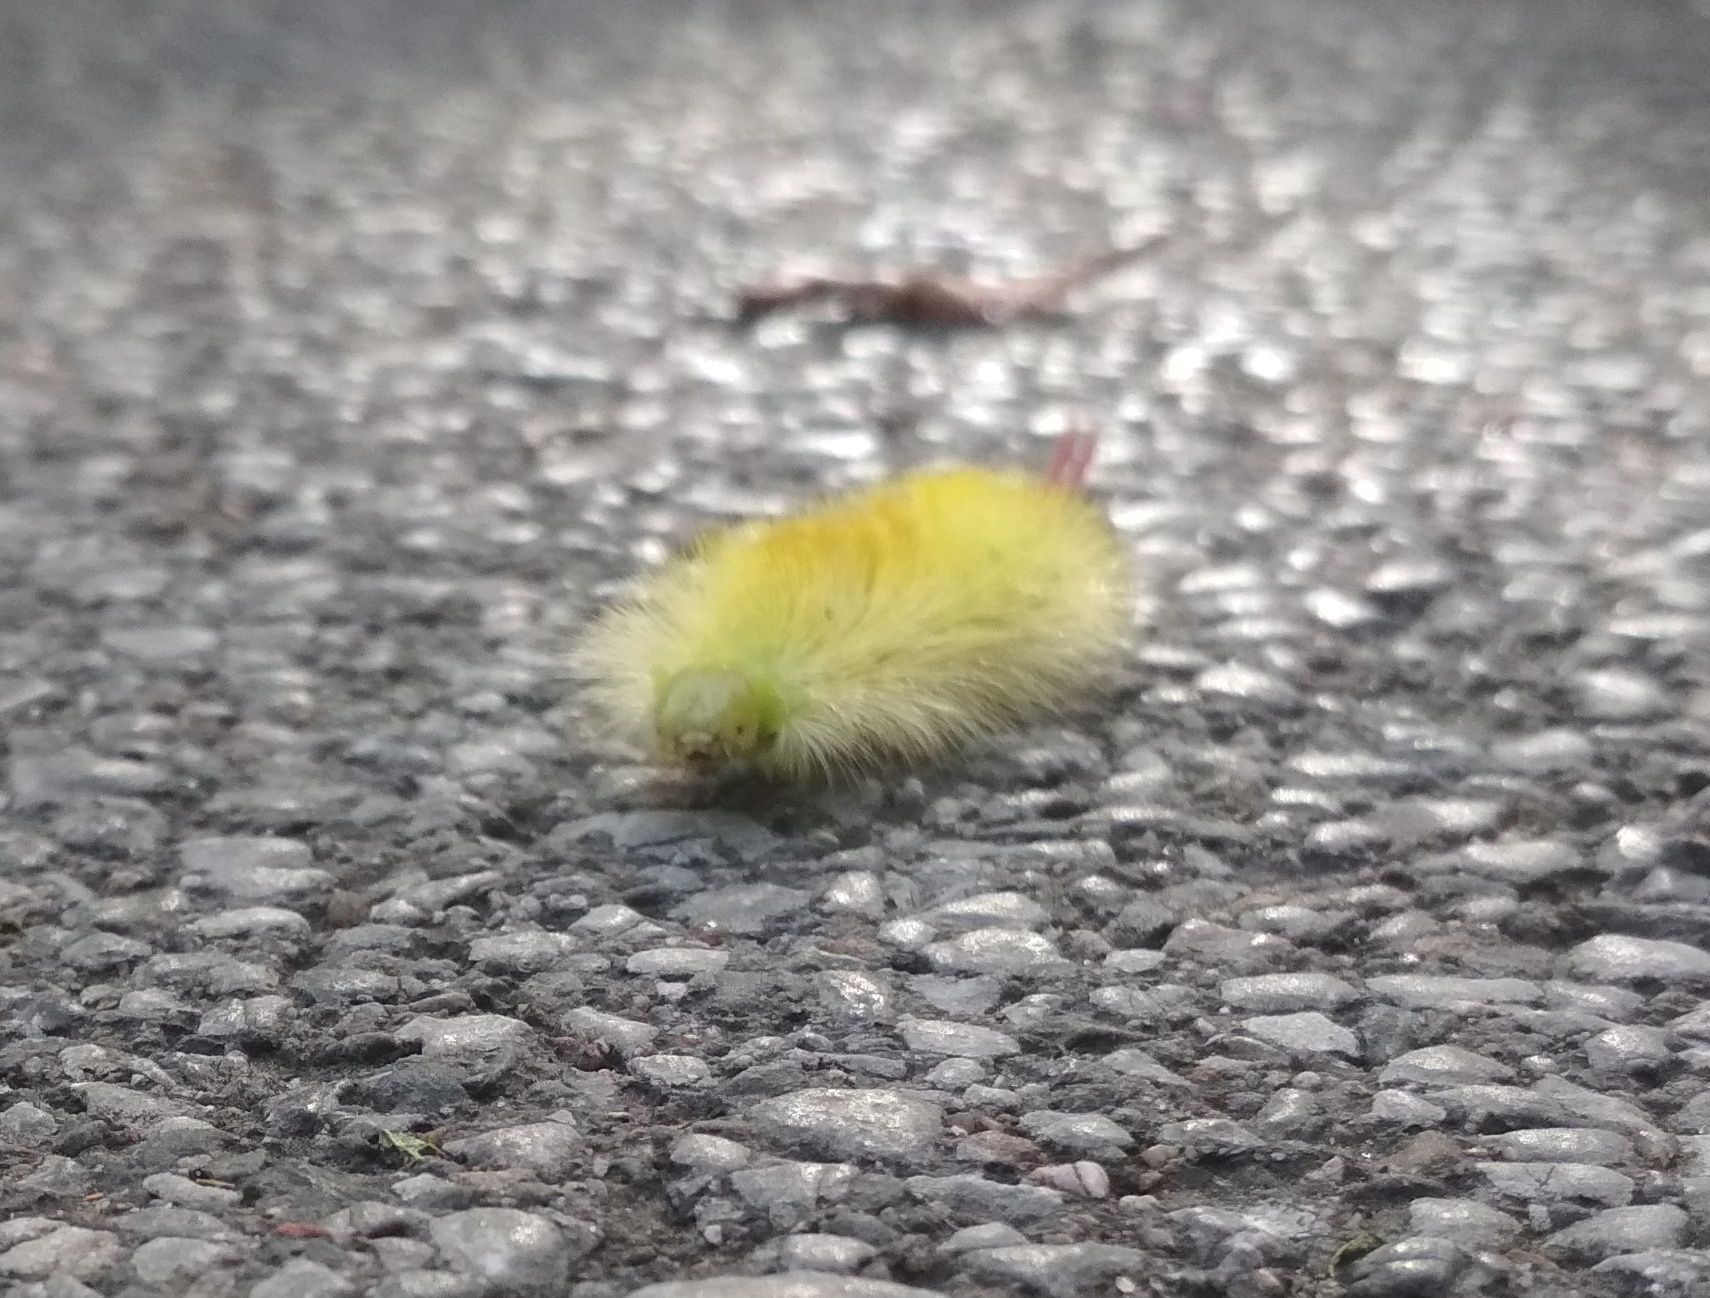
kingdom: Animalia
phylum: Arthropoda
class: Insecta
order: Lepidoptera
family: Erebidae
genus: Calliteara
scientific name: Calliteara pudibunda
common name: Pale tussock
